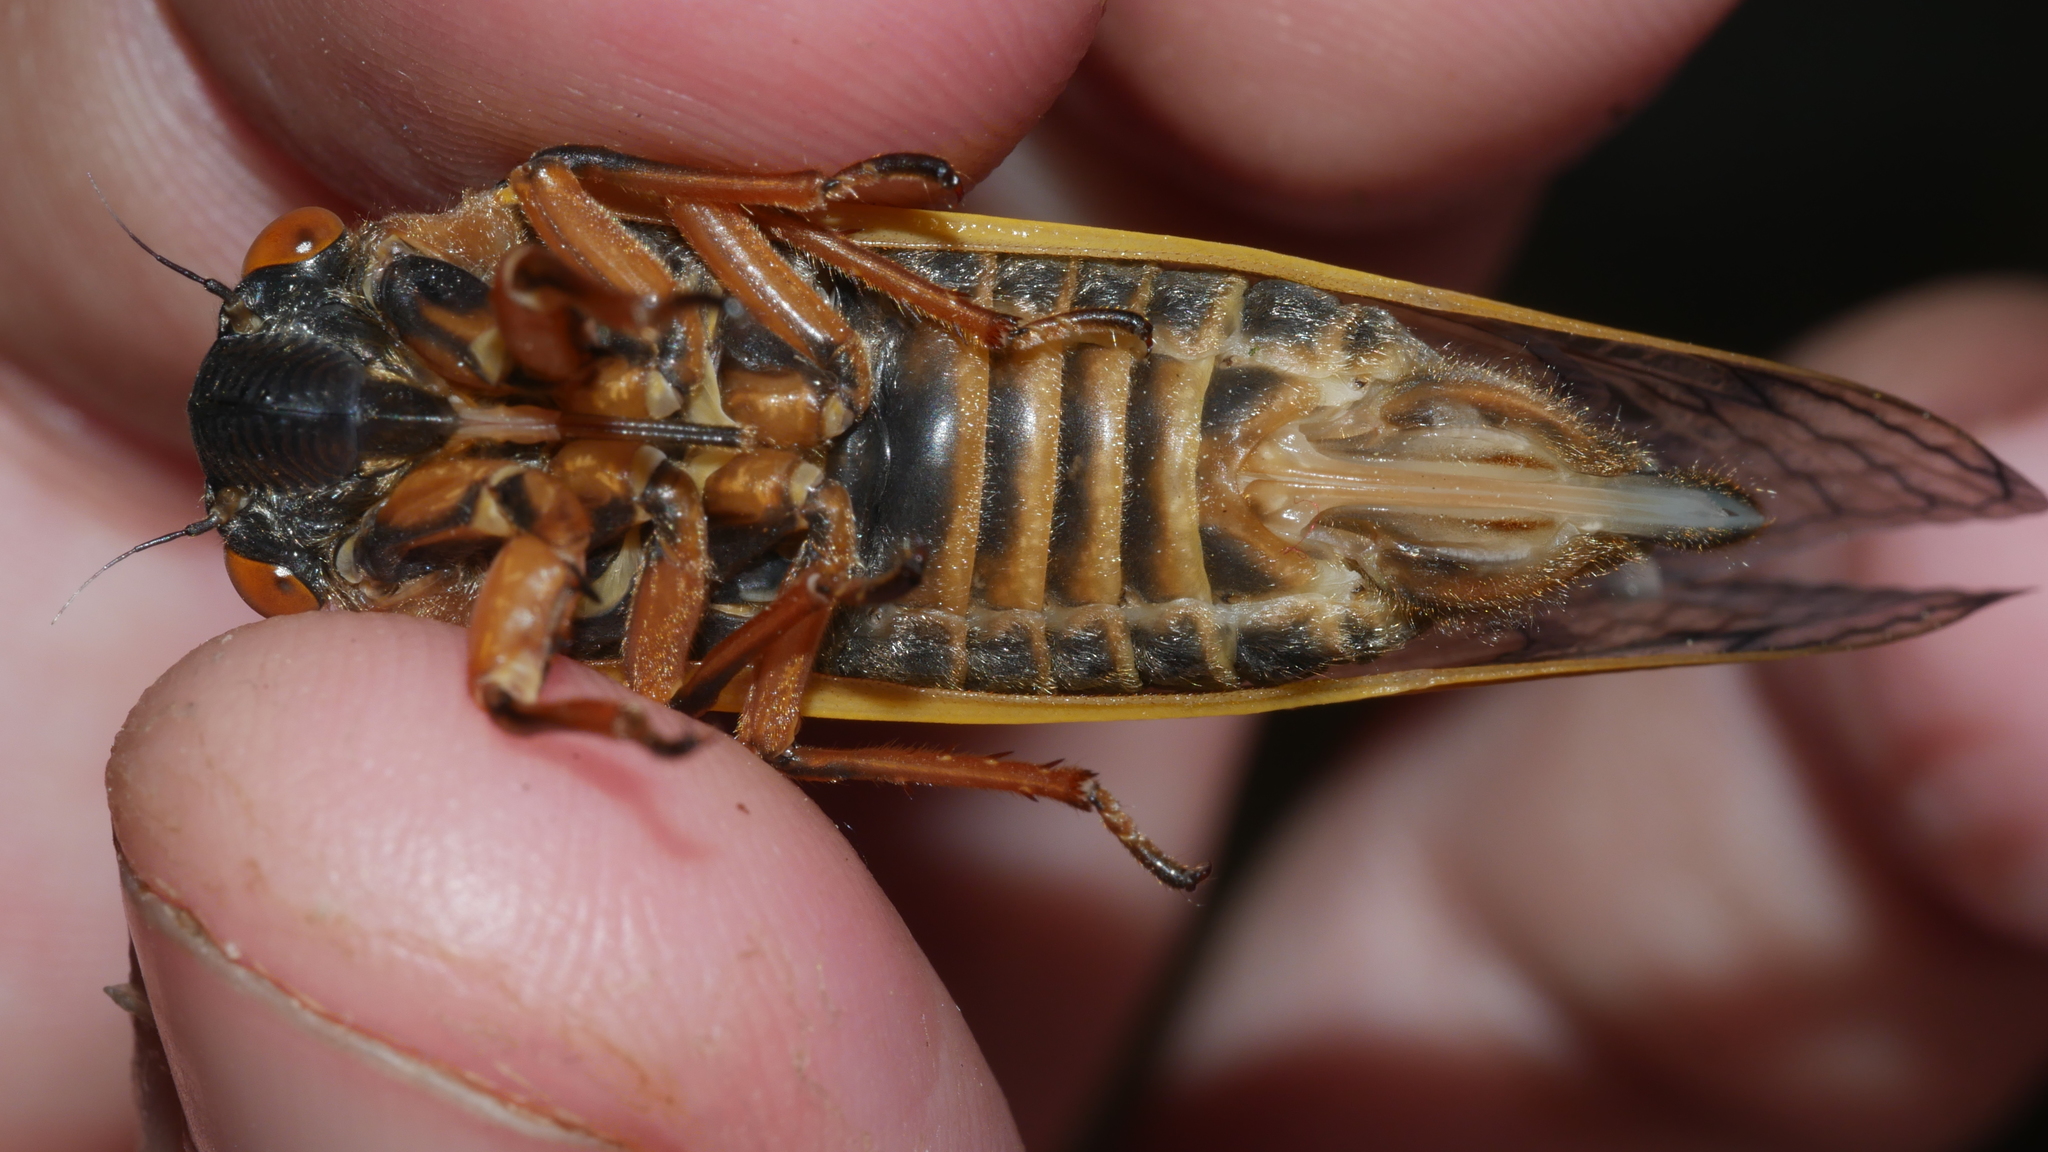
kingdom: Animalia
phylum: Arthropoda
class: Insecta
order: Hemiptera
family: Cicadidae
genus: Magicicada
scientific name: Magicicada septendecim
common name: Periodical cicada
